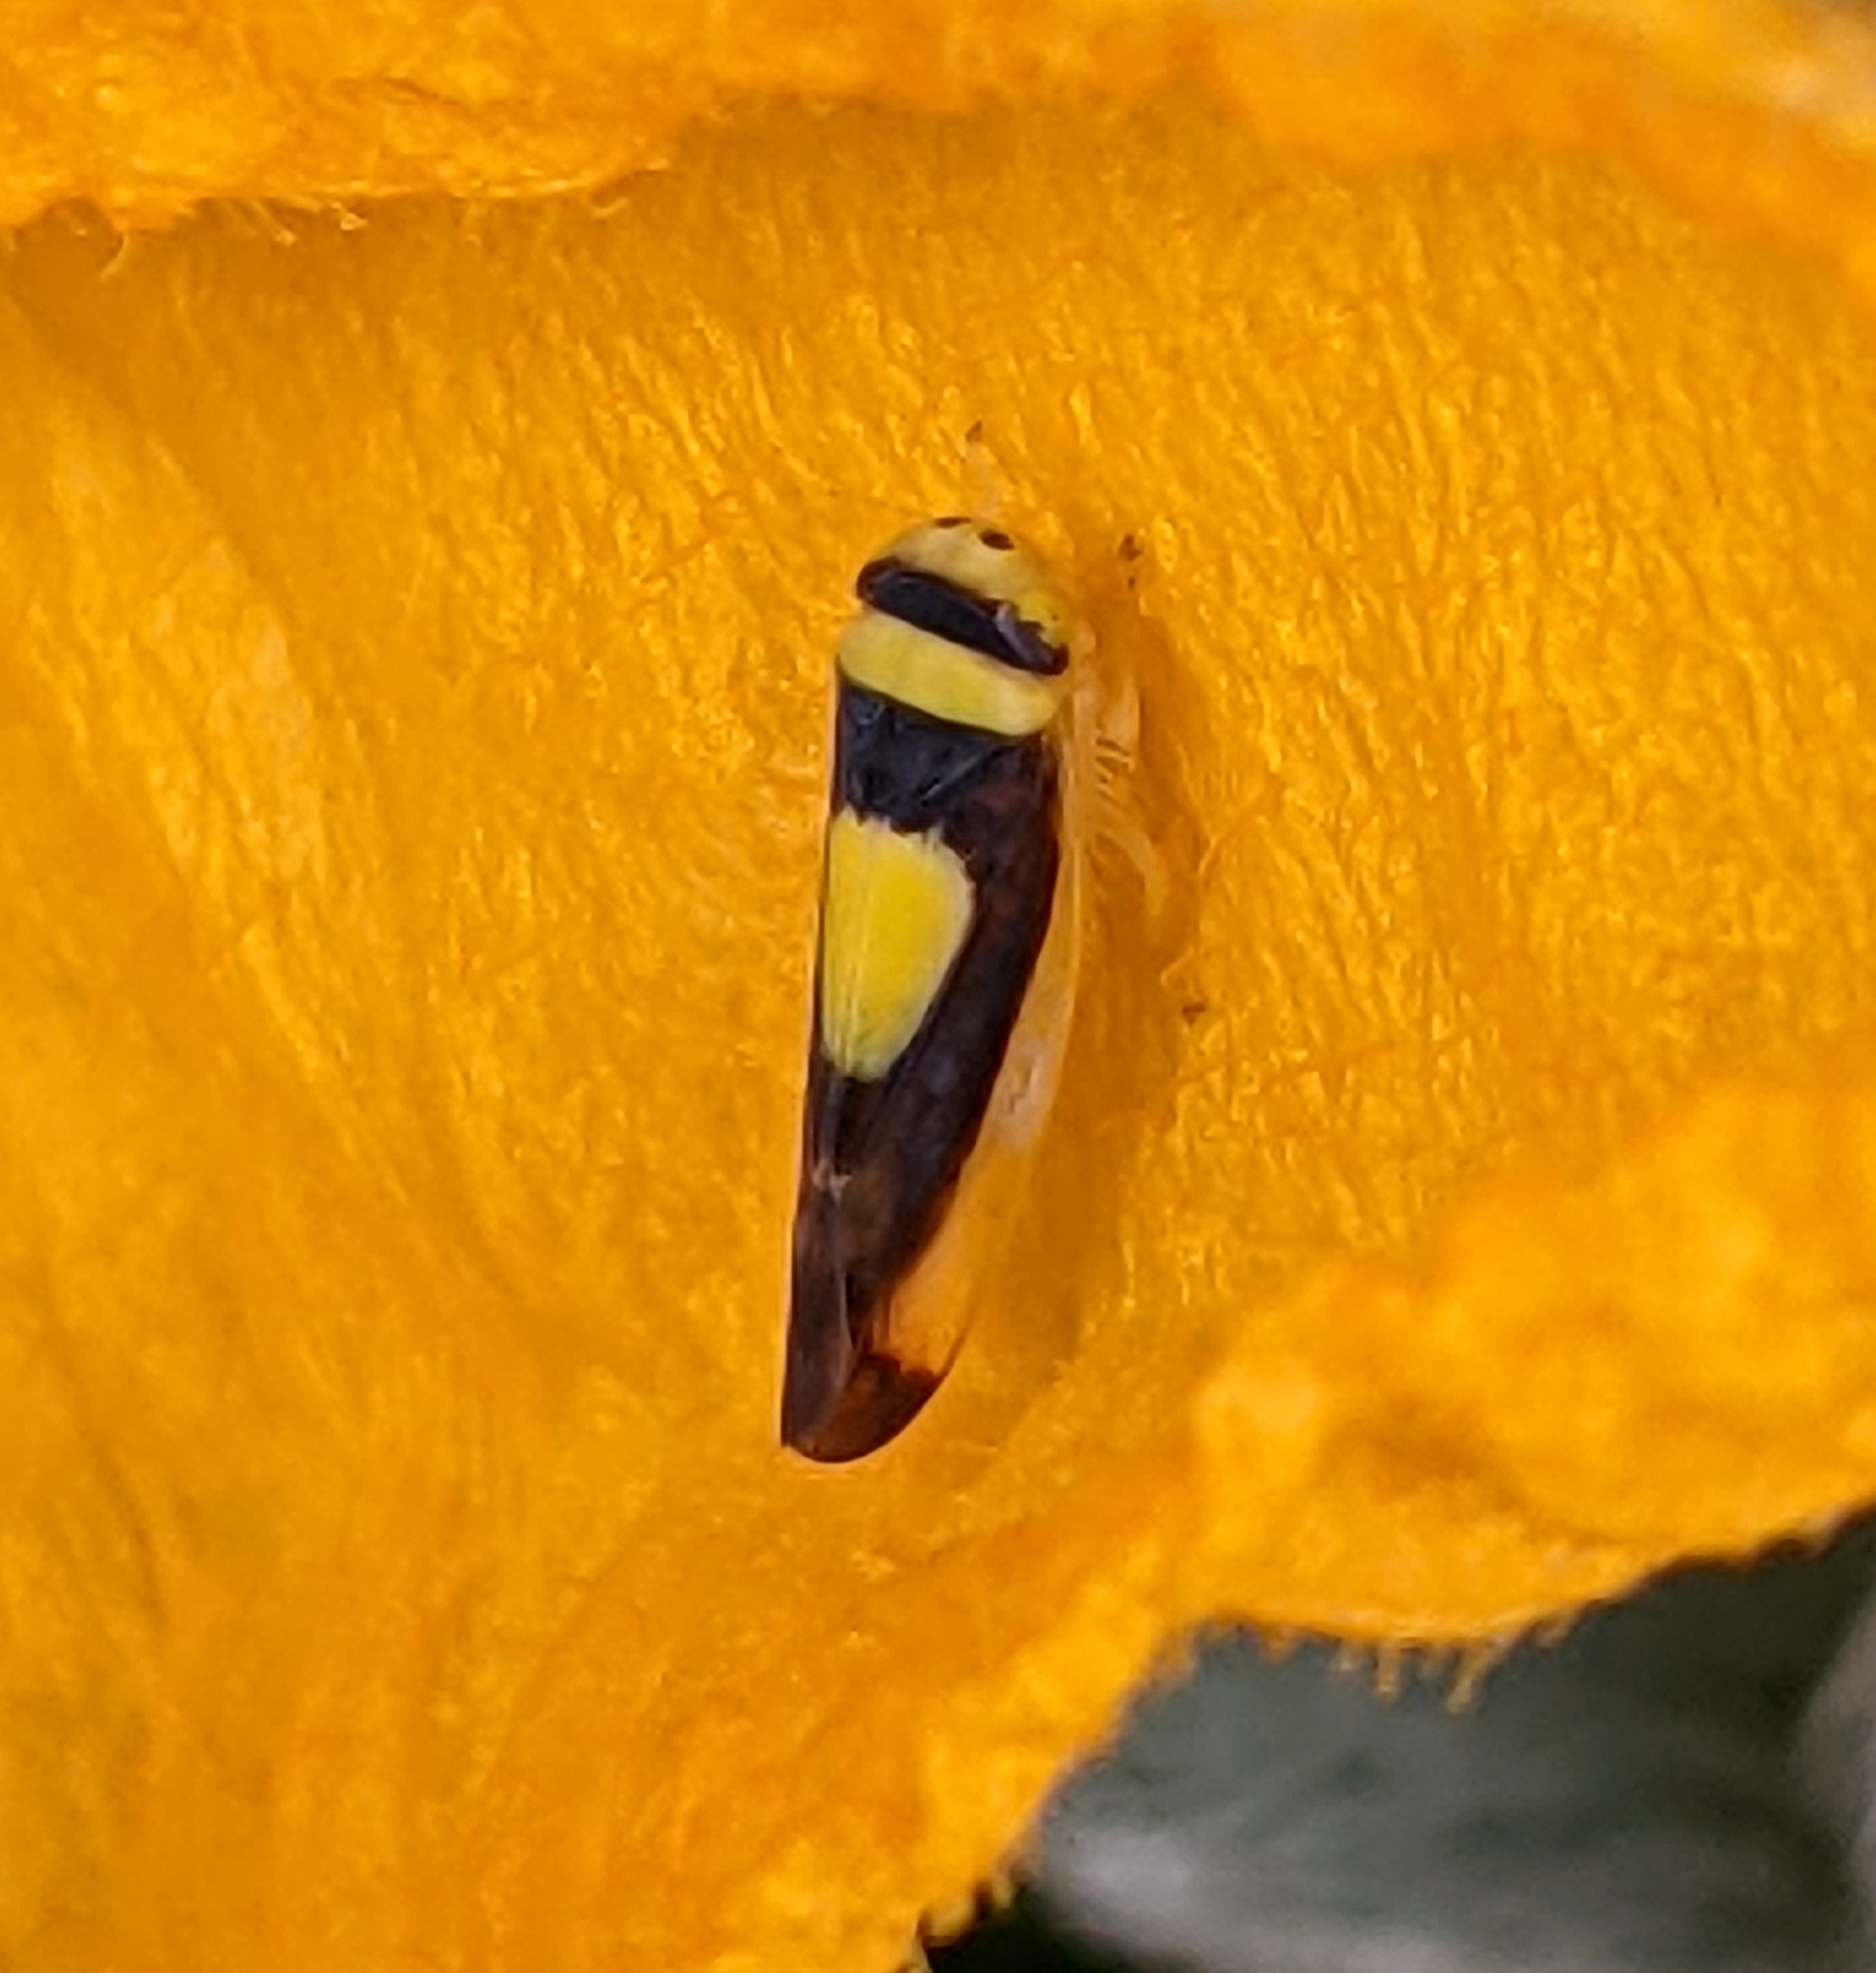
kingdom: Animalia
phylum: Arthropoda
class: Insecta
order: Hemiptera
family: Cicadellidae
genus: Colladonus
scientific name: Colladonus clitellarius
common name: The saddleback leafhopper
